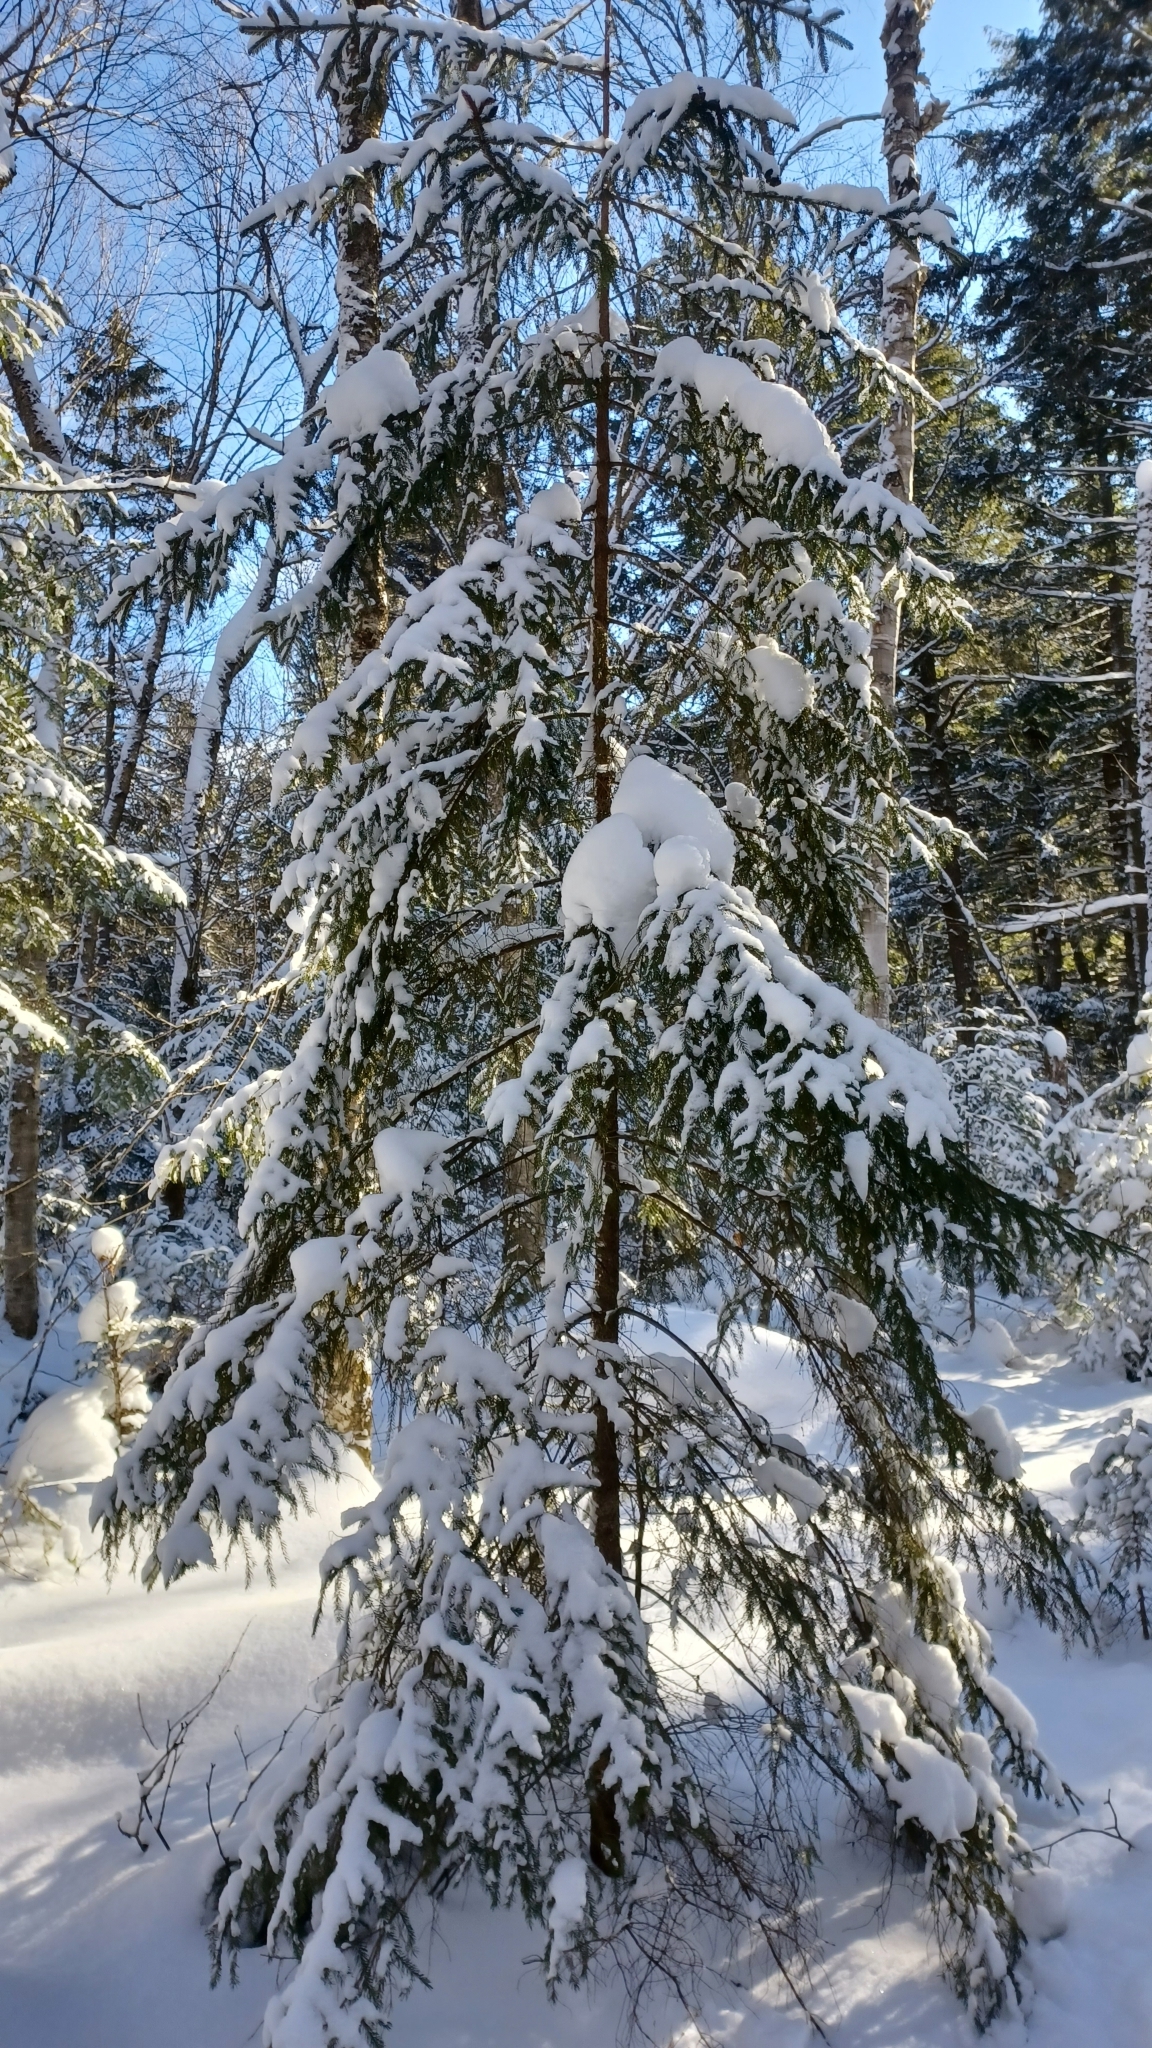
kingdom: Plantae
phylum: Tracheophyta
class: Pinopsida
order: Pinales
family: Pinaceae
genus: Picea
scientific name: Picea rubens
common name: Red spruce
